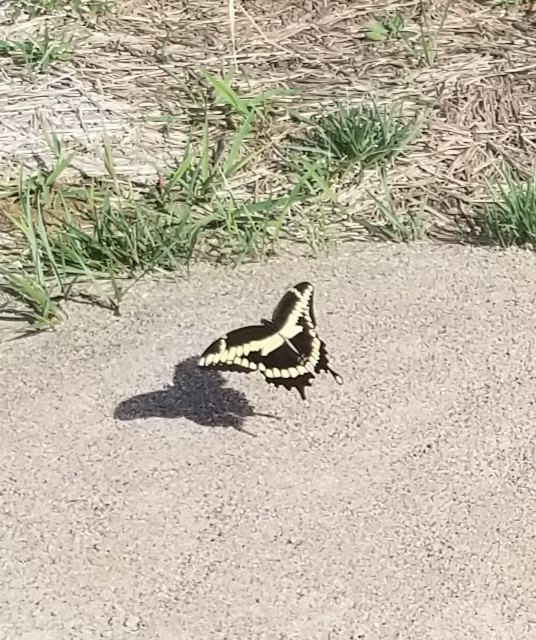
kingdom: Animalia
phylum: Arthropoda
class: Insecta
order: Lepidoptera
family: Papilionidae
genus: Papilio
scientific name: Papilio cresphontes
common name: Giant swallowtail
